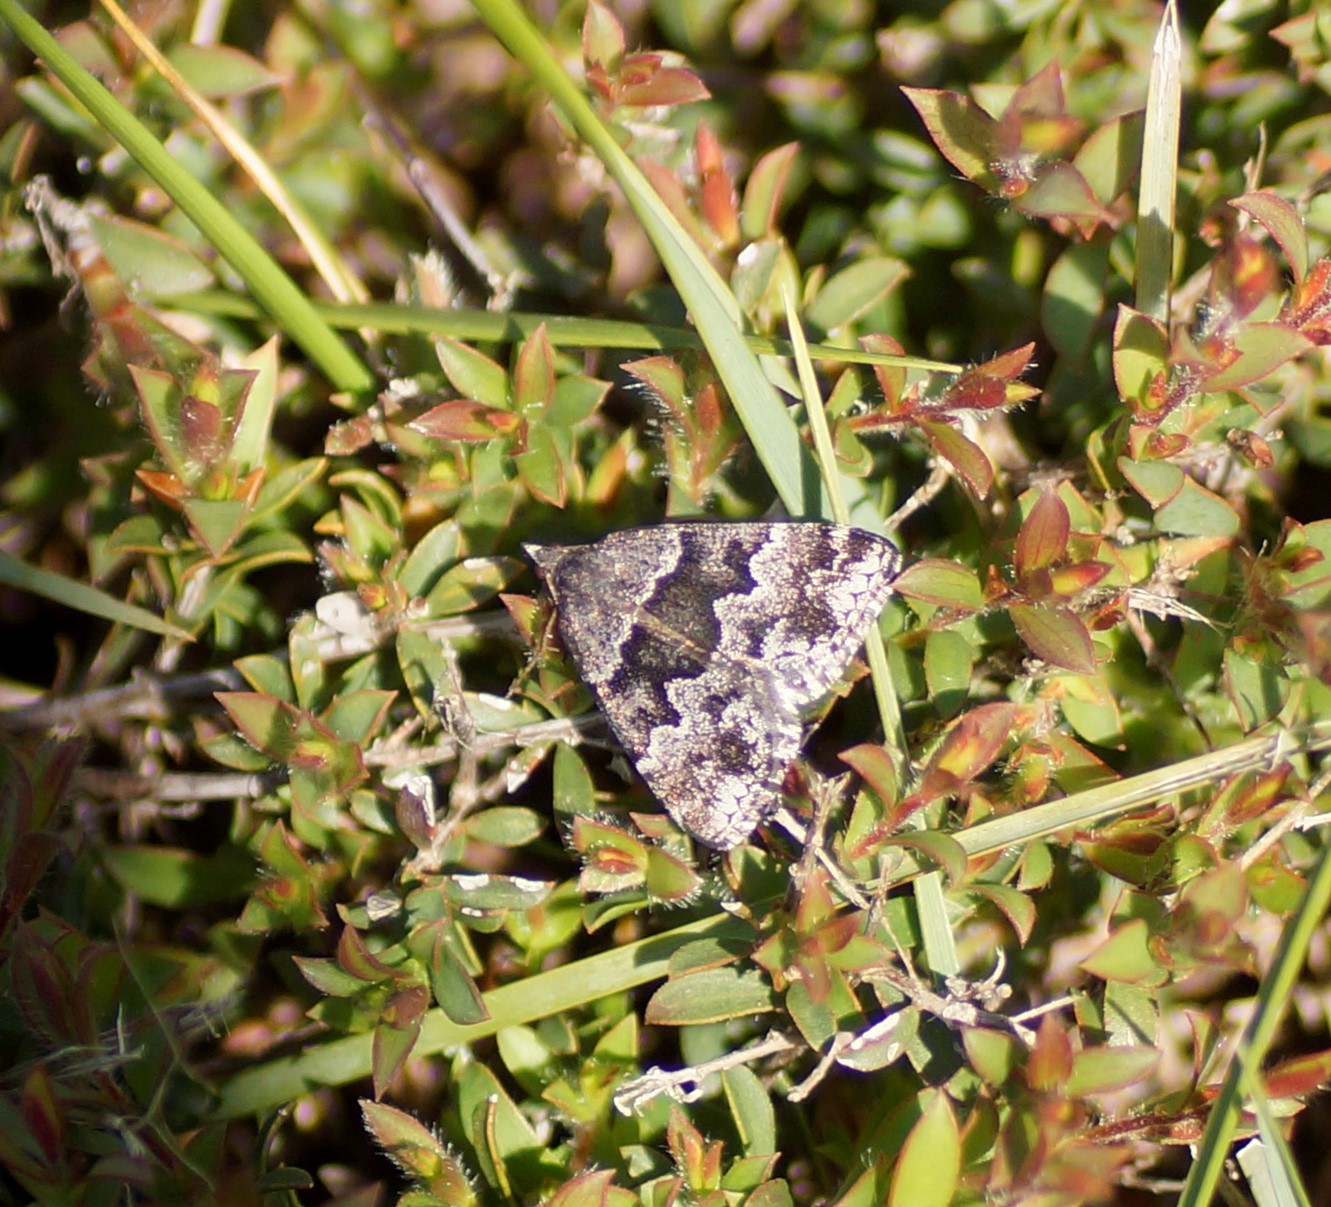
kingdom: Animalia
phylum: Arthropoda
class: Insecta
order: Lepidoptera
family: Geometridae
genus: Dichromodes
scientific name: Dichromodes ainaria
